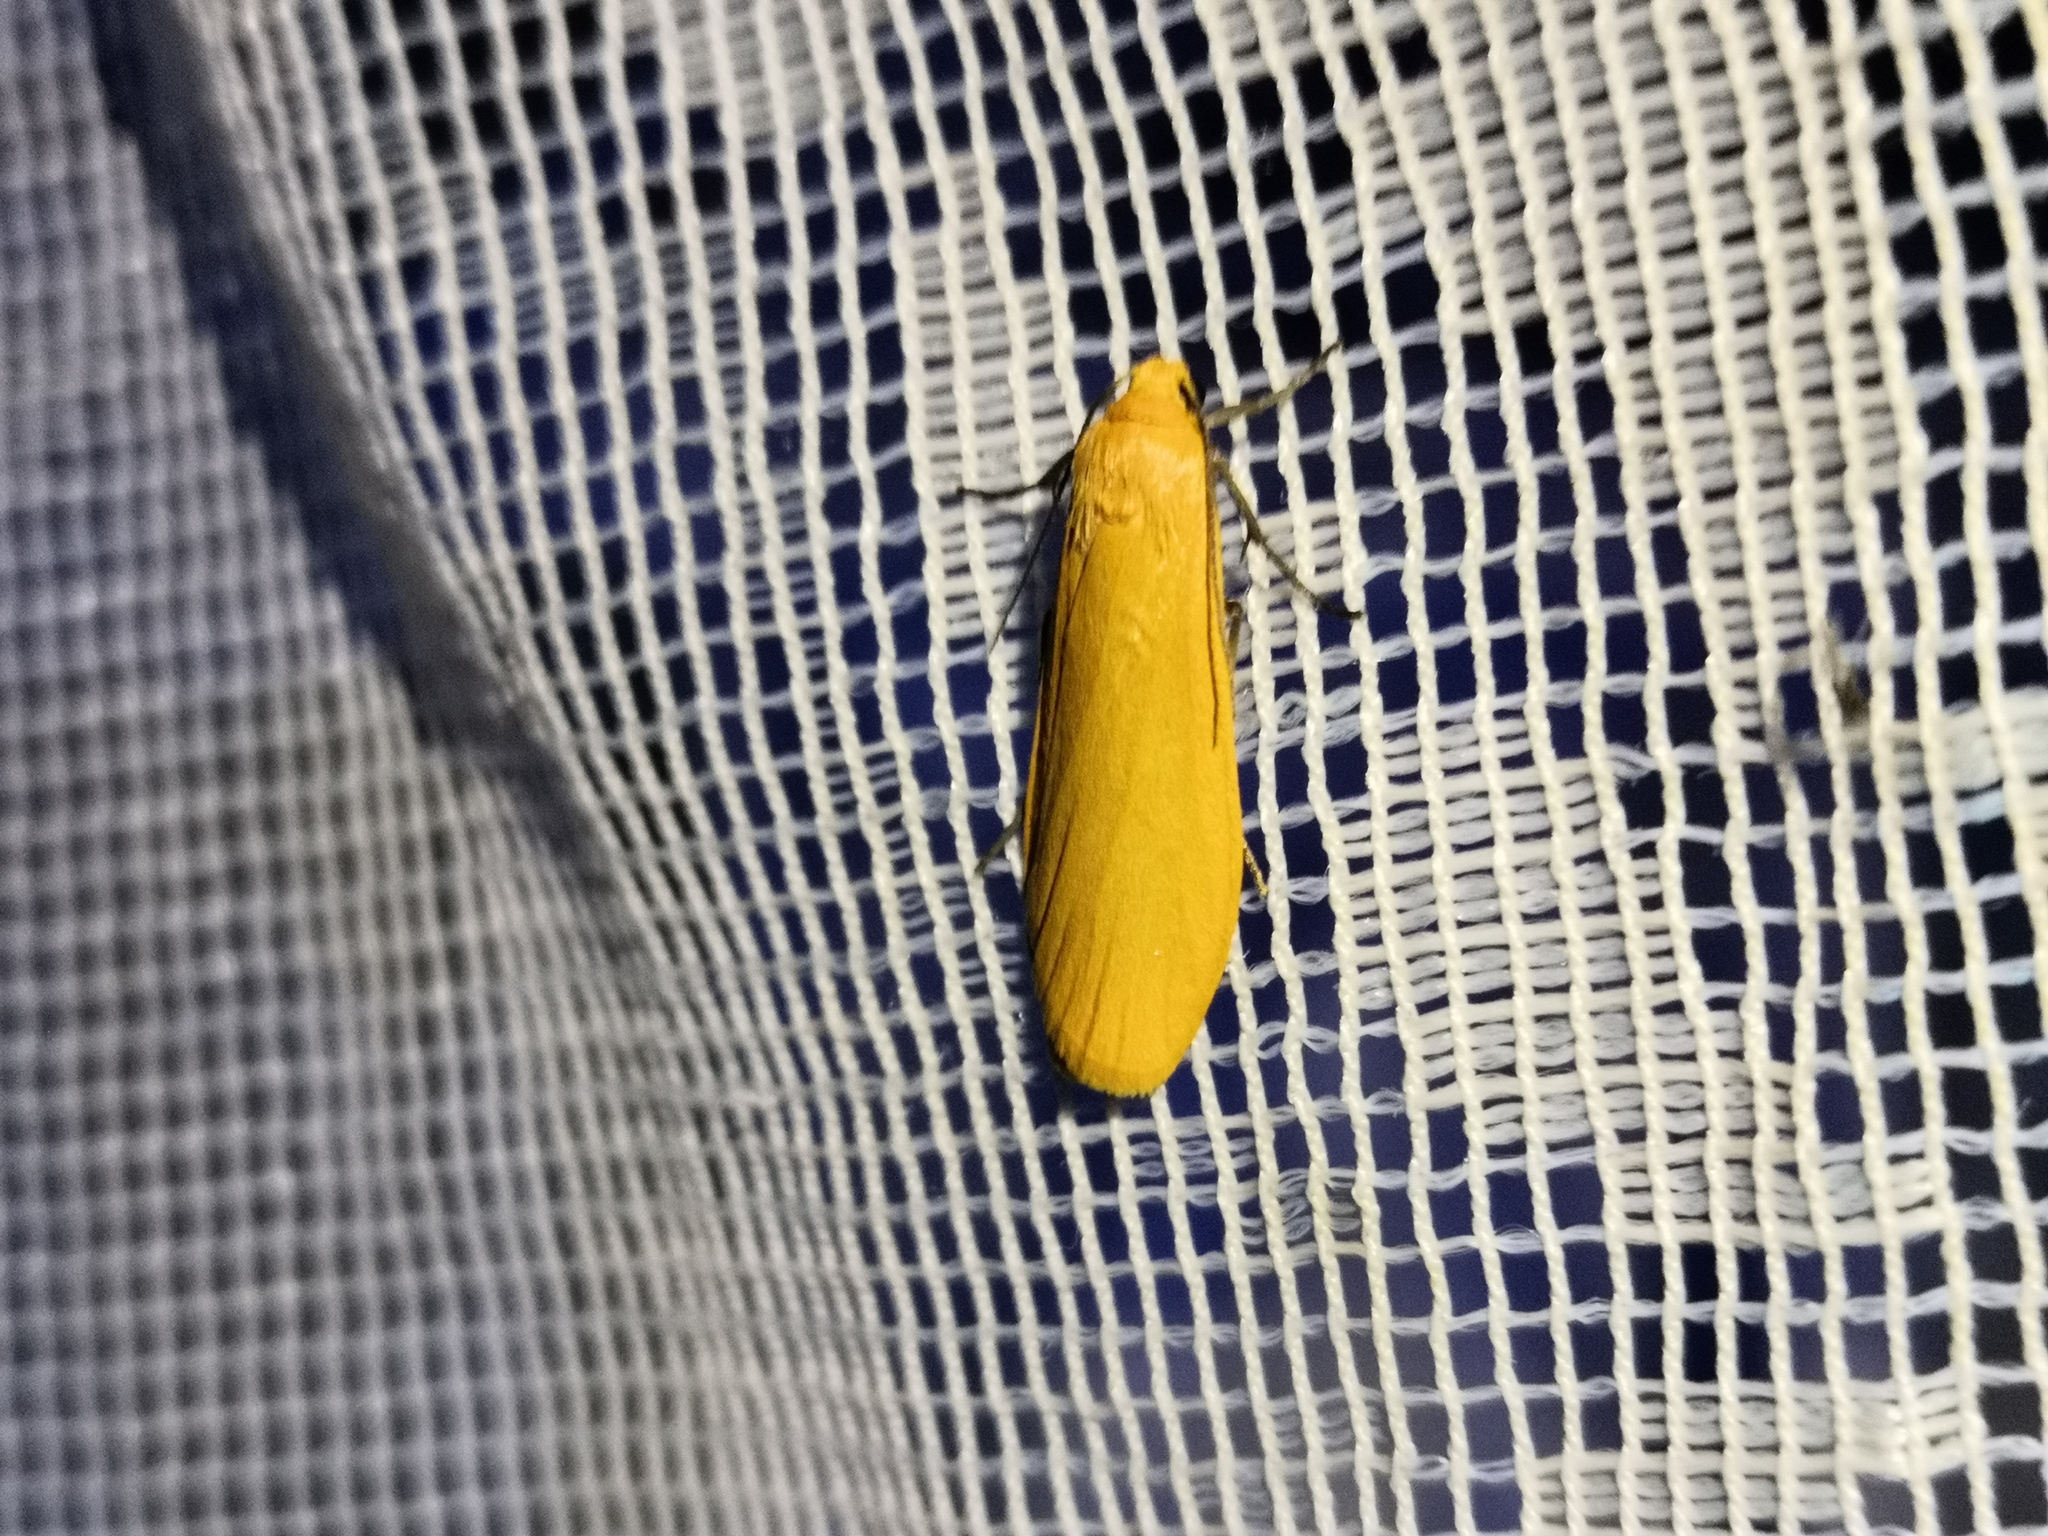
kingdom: Animalia
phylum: Arthropoda
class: Insecta
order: Lepidoptera
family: Erebidae
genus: Wittia
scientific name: Wittia sororcula
